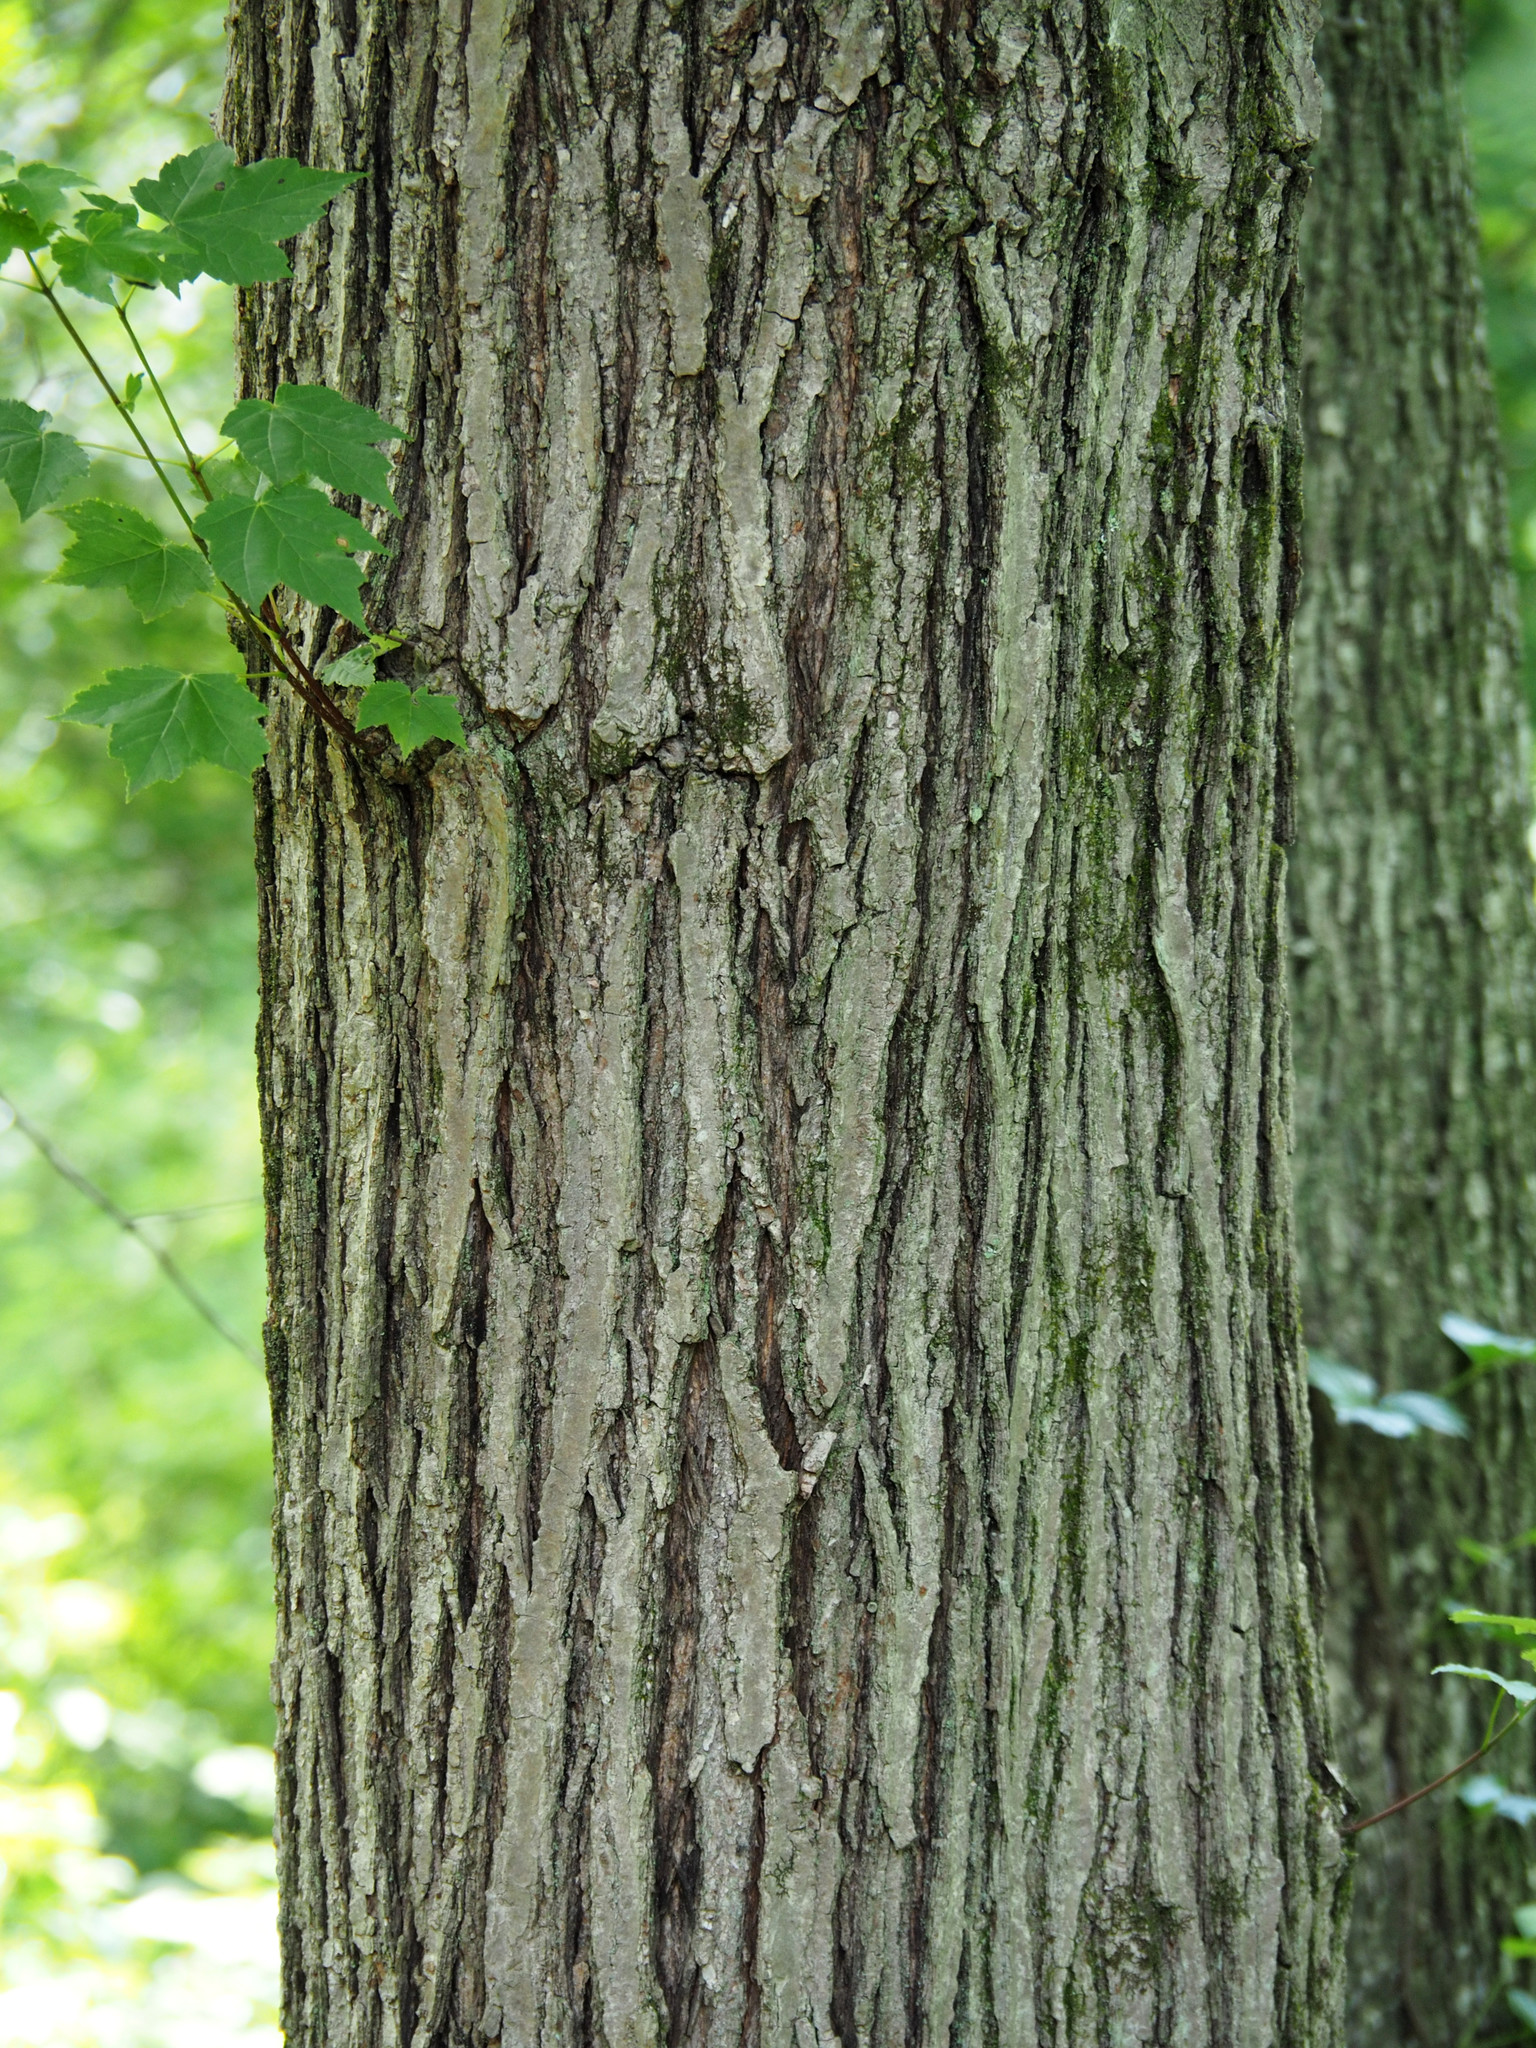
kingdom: Plantae
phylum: Tracheophyta
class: Magnoliopsida
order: Sapindales
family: Sapindaceae
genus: Acer
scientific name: Acer rubrum
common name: Red maple
